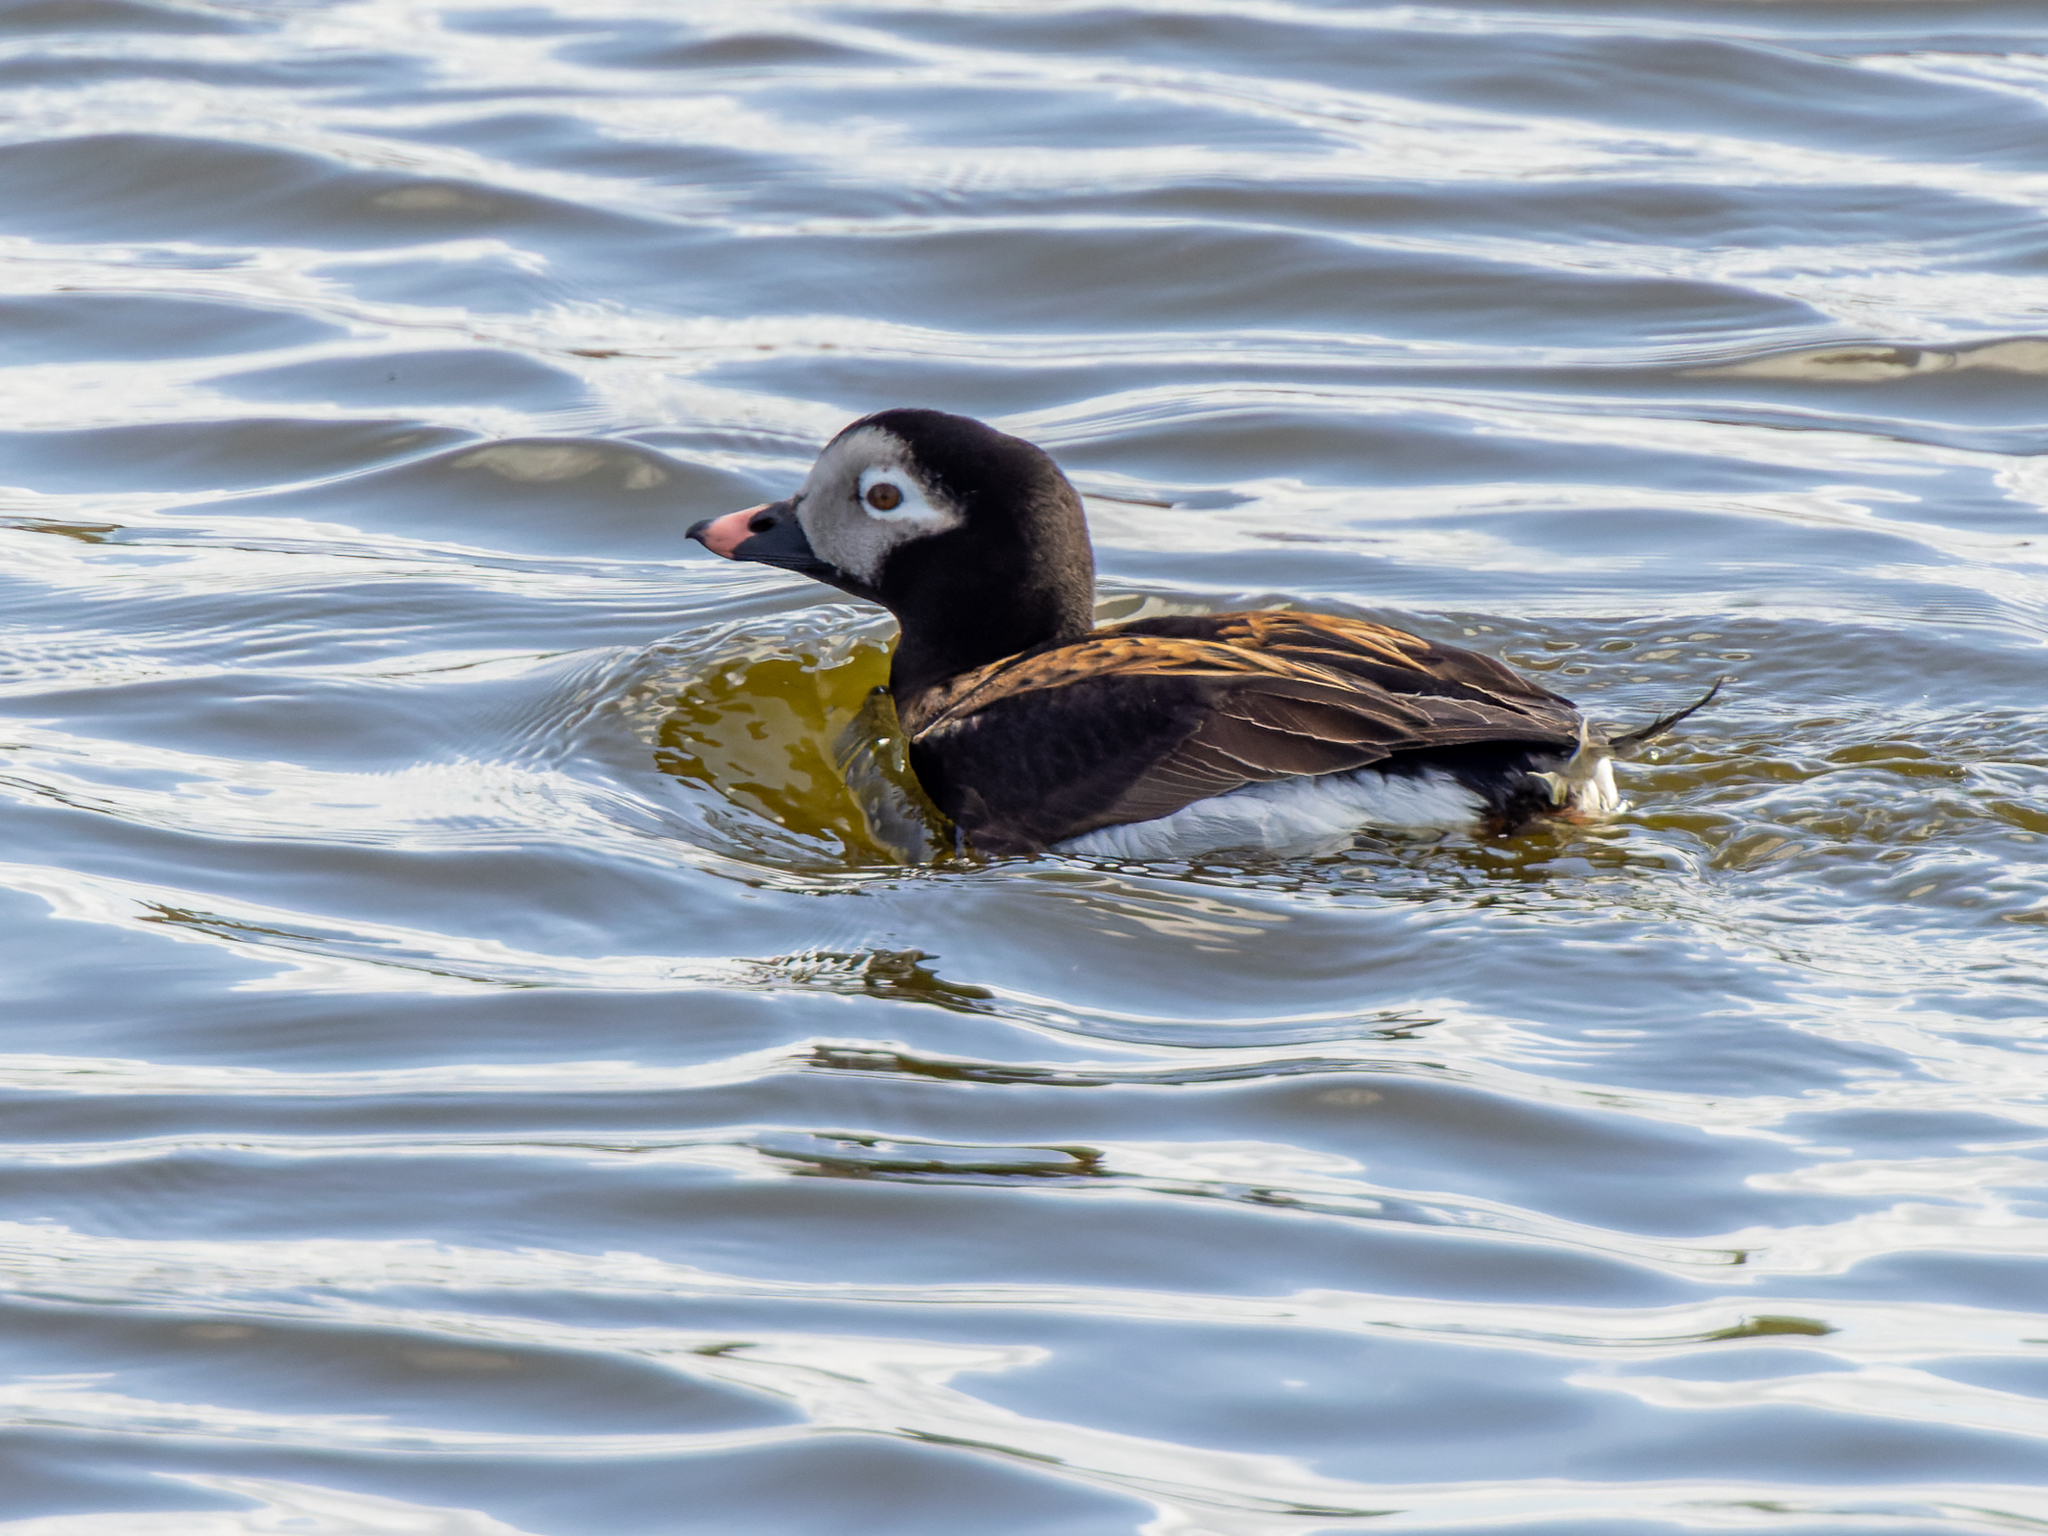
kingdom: Animalia
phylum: Chordata
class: Aves
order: Anseriformes
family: Anatidae
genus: Clangula
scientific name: Clangula hyemalis
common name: Long-tailed duck
